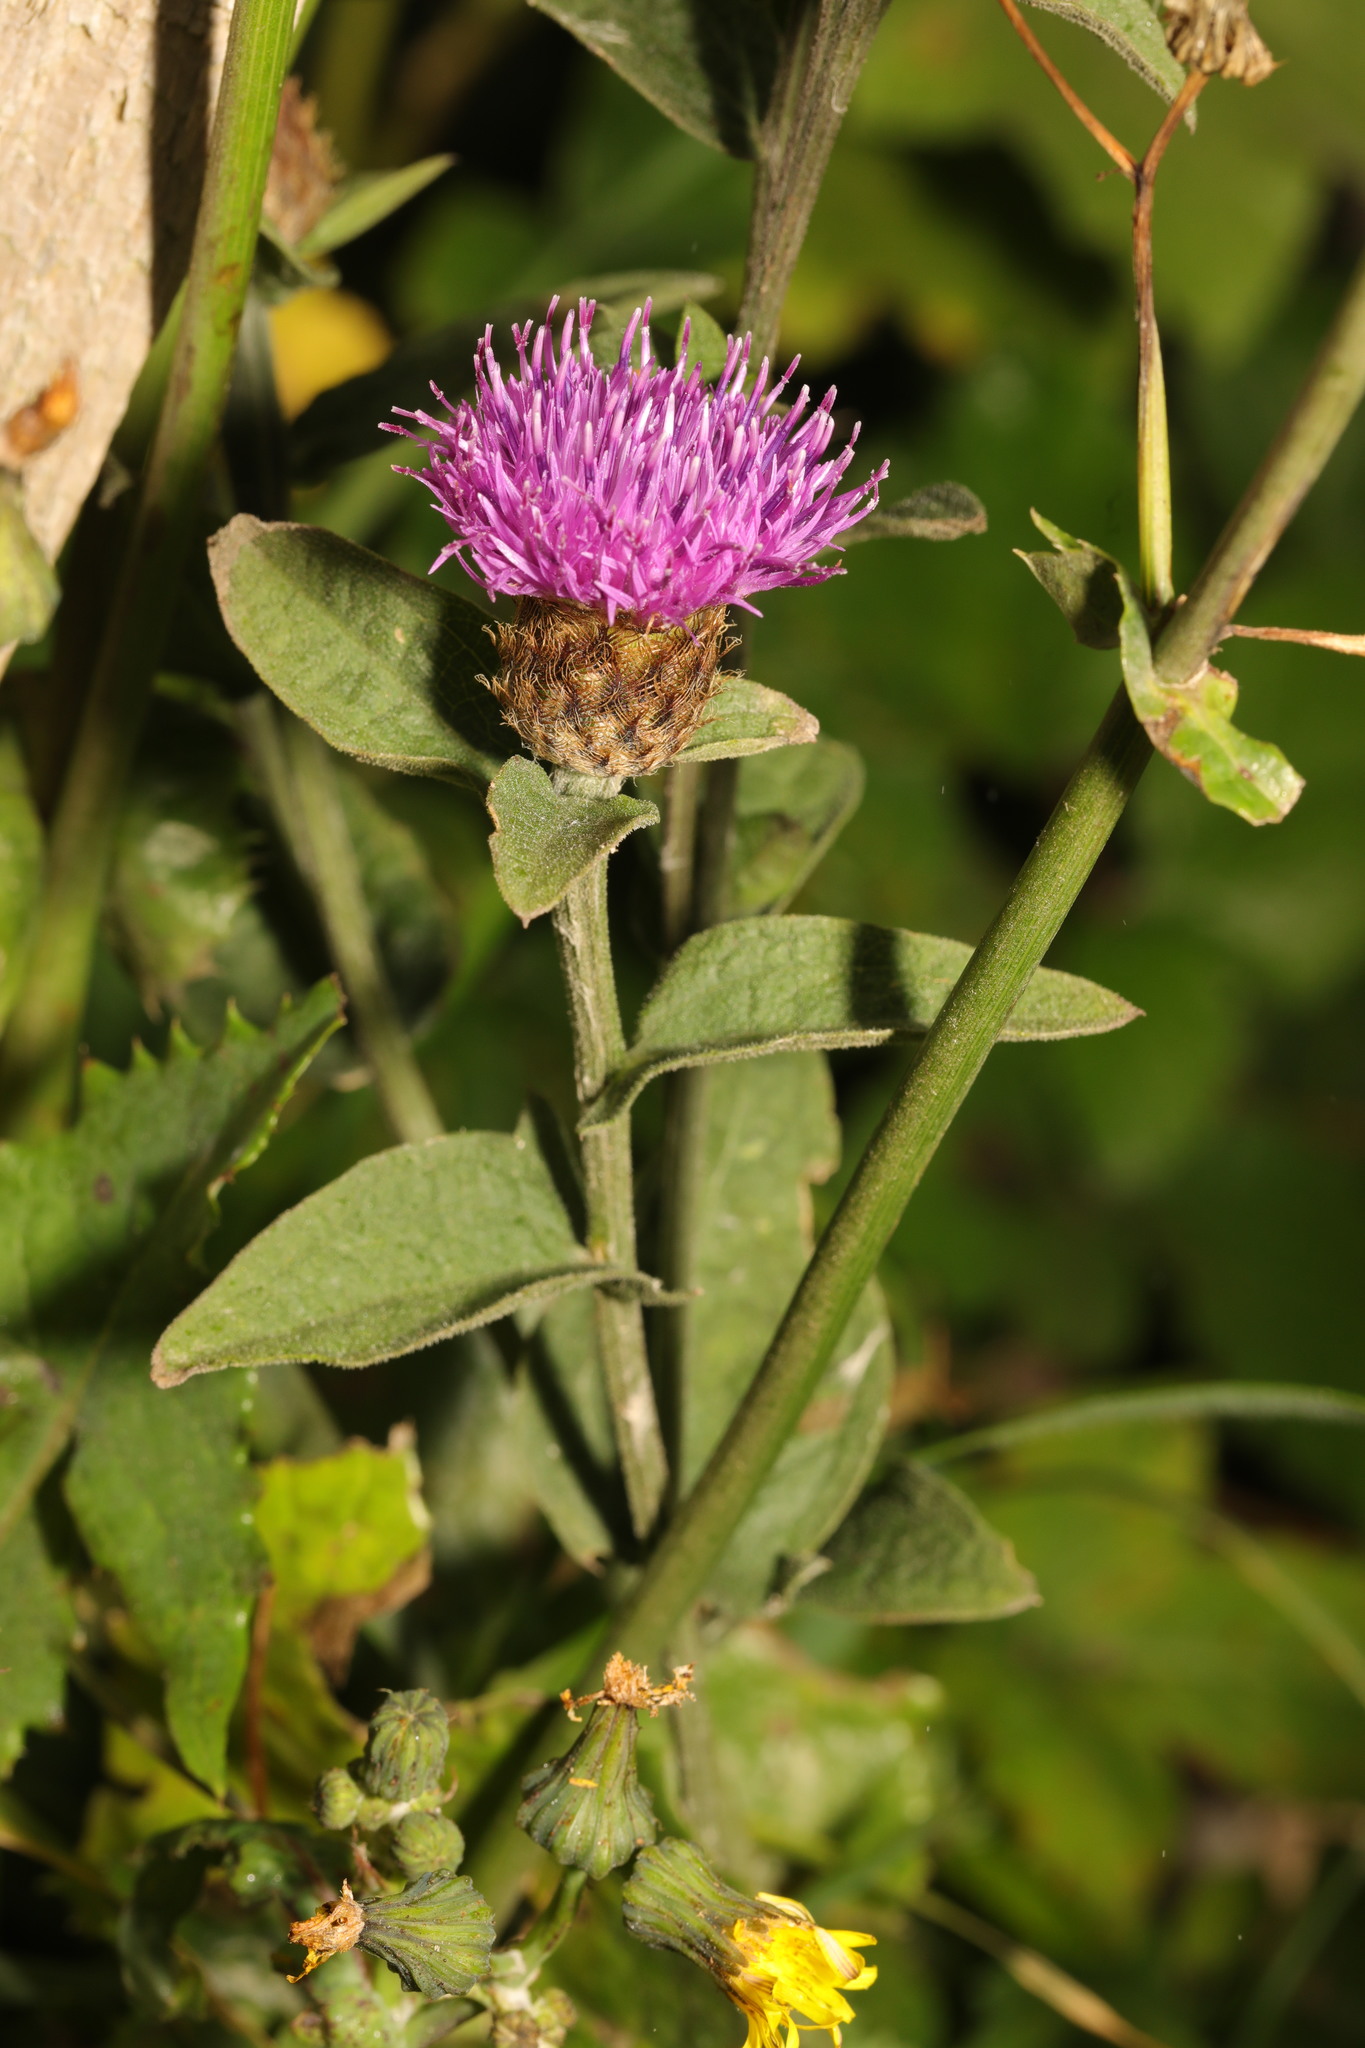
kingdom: Plantae
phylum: Tracheophyta
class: Magnoliopsida
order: Asterales
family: Asteraceae
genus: Centaurea
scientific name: Centaurea nigra
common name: Lesser knapweed
